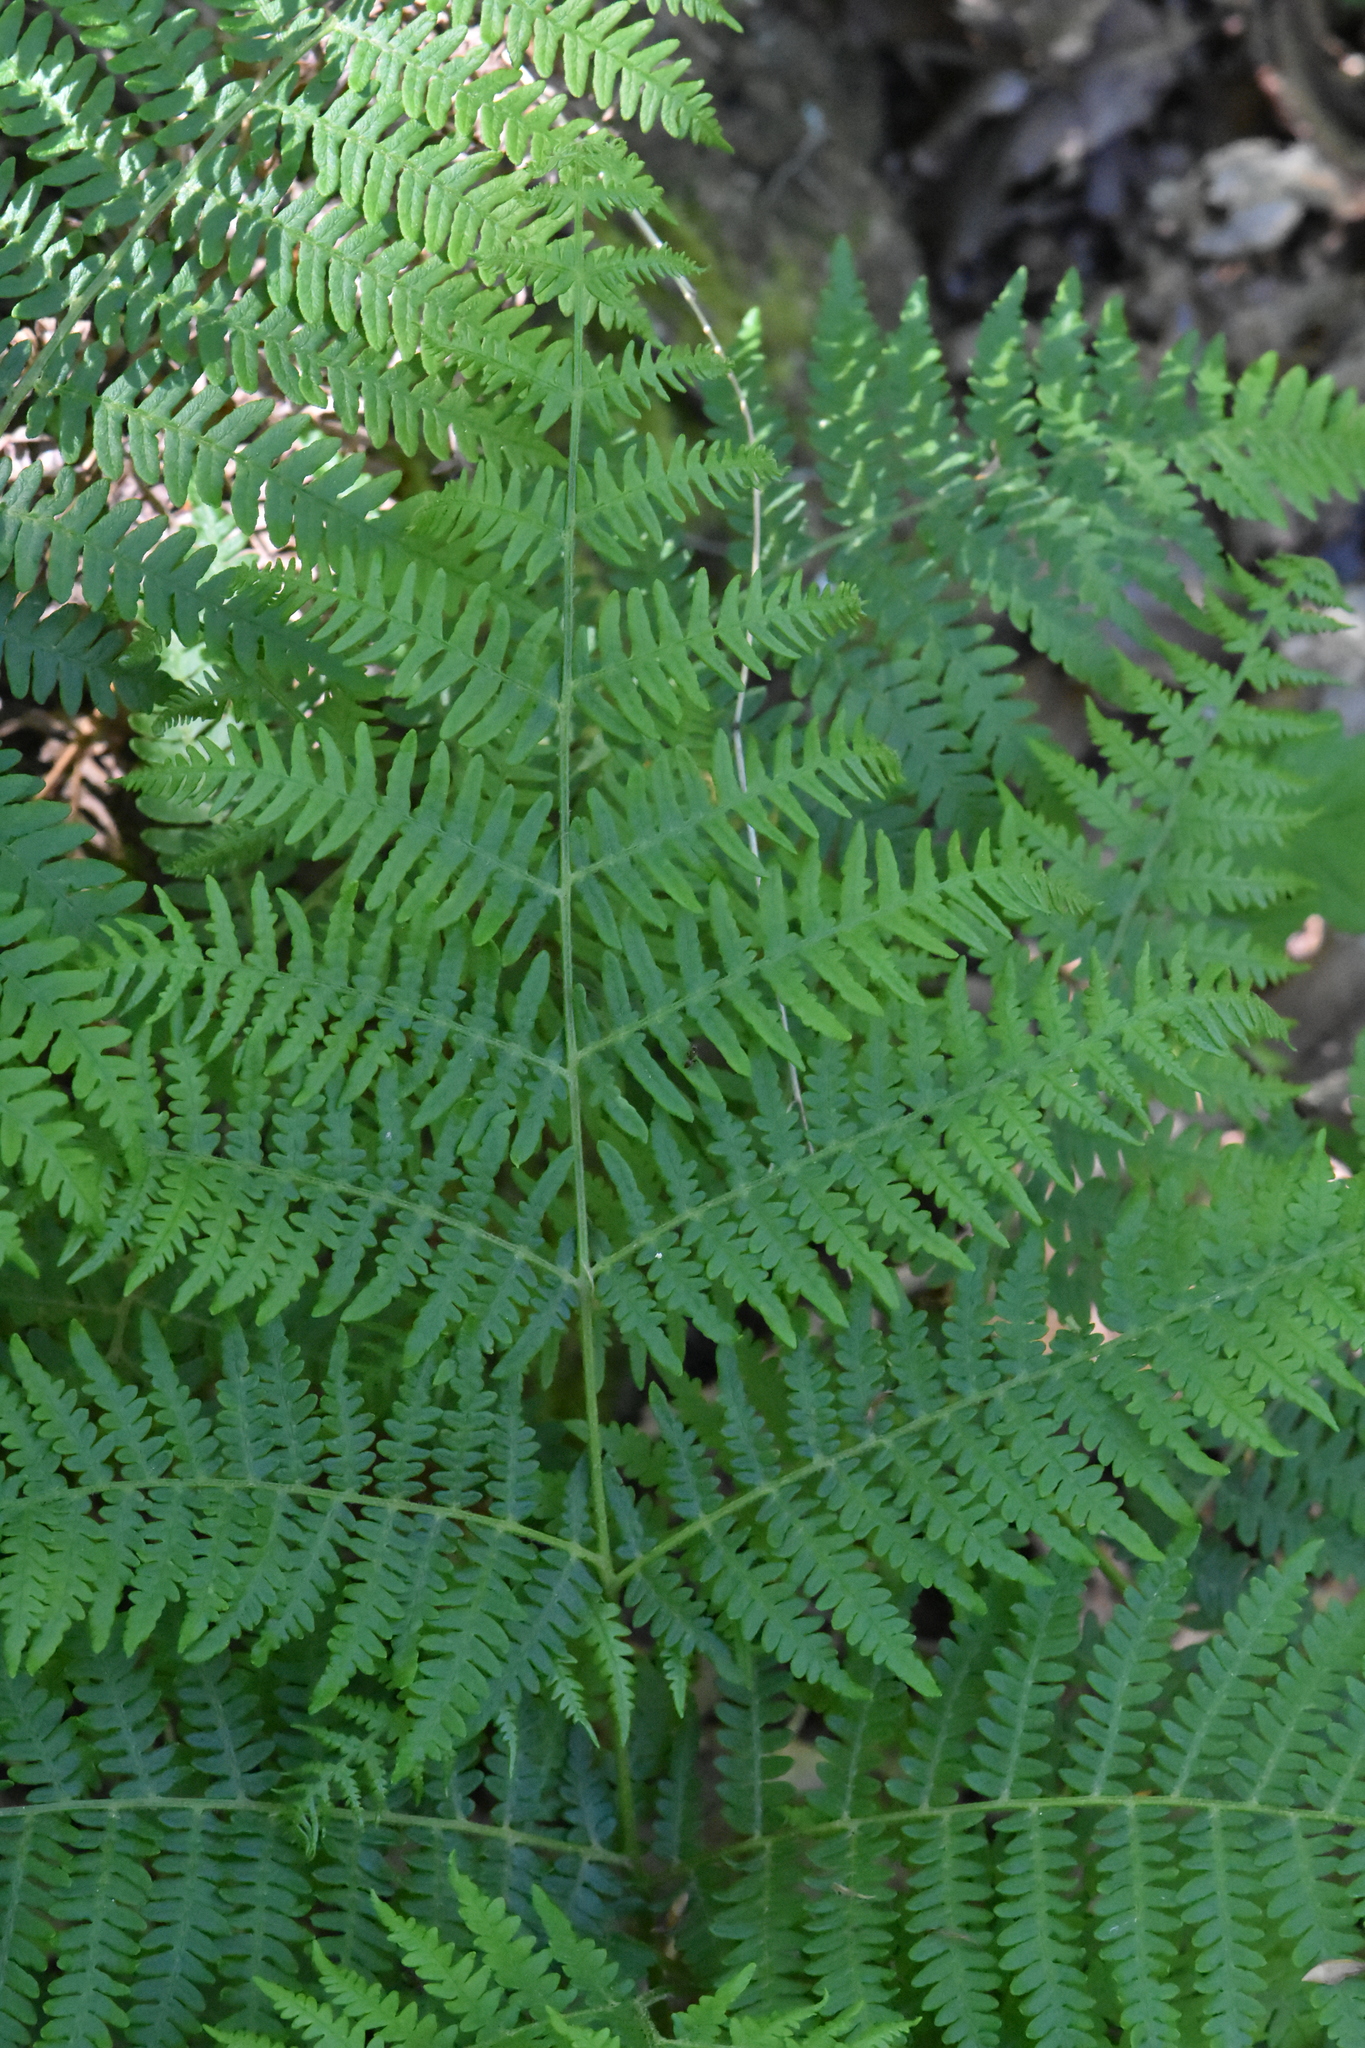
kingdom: Plantae
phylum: Tracheophyta
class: Polypodiopsida
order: Polypodiales
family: Dennstaedtiaceae
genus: Pteridium
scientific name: Pteridium tauricum
